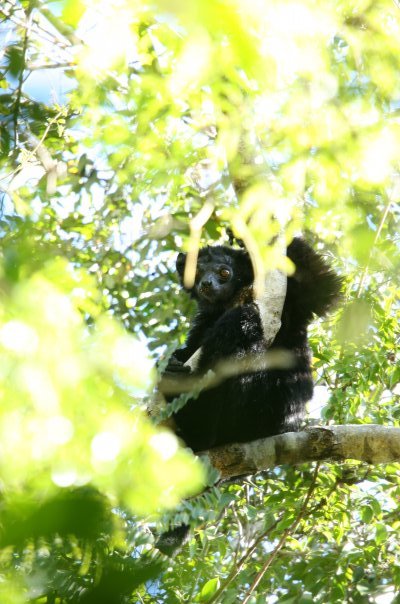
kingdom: Animalia
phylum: Chordata
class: Mammalia
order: Primates
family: Indriidae
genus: Propithecus
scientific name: Propithecus perrieri
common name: Perrier’s sifaka
